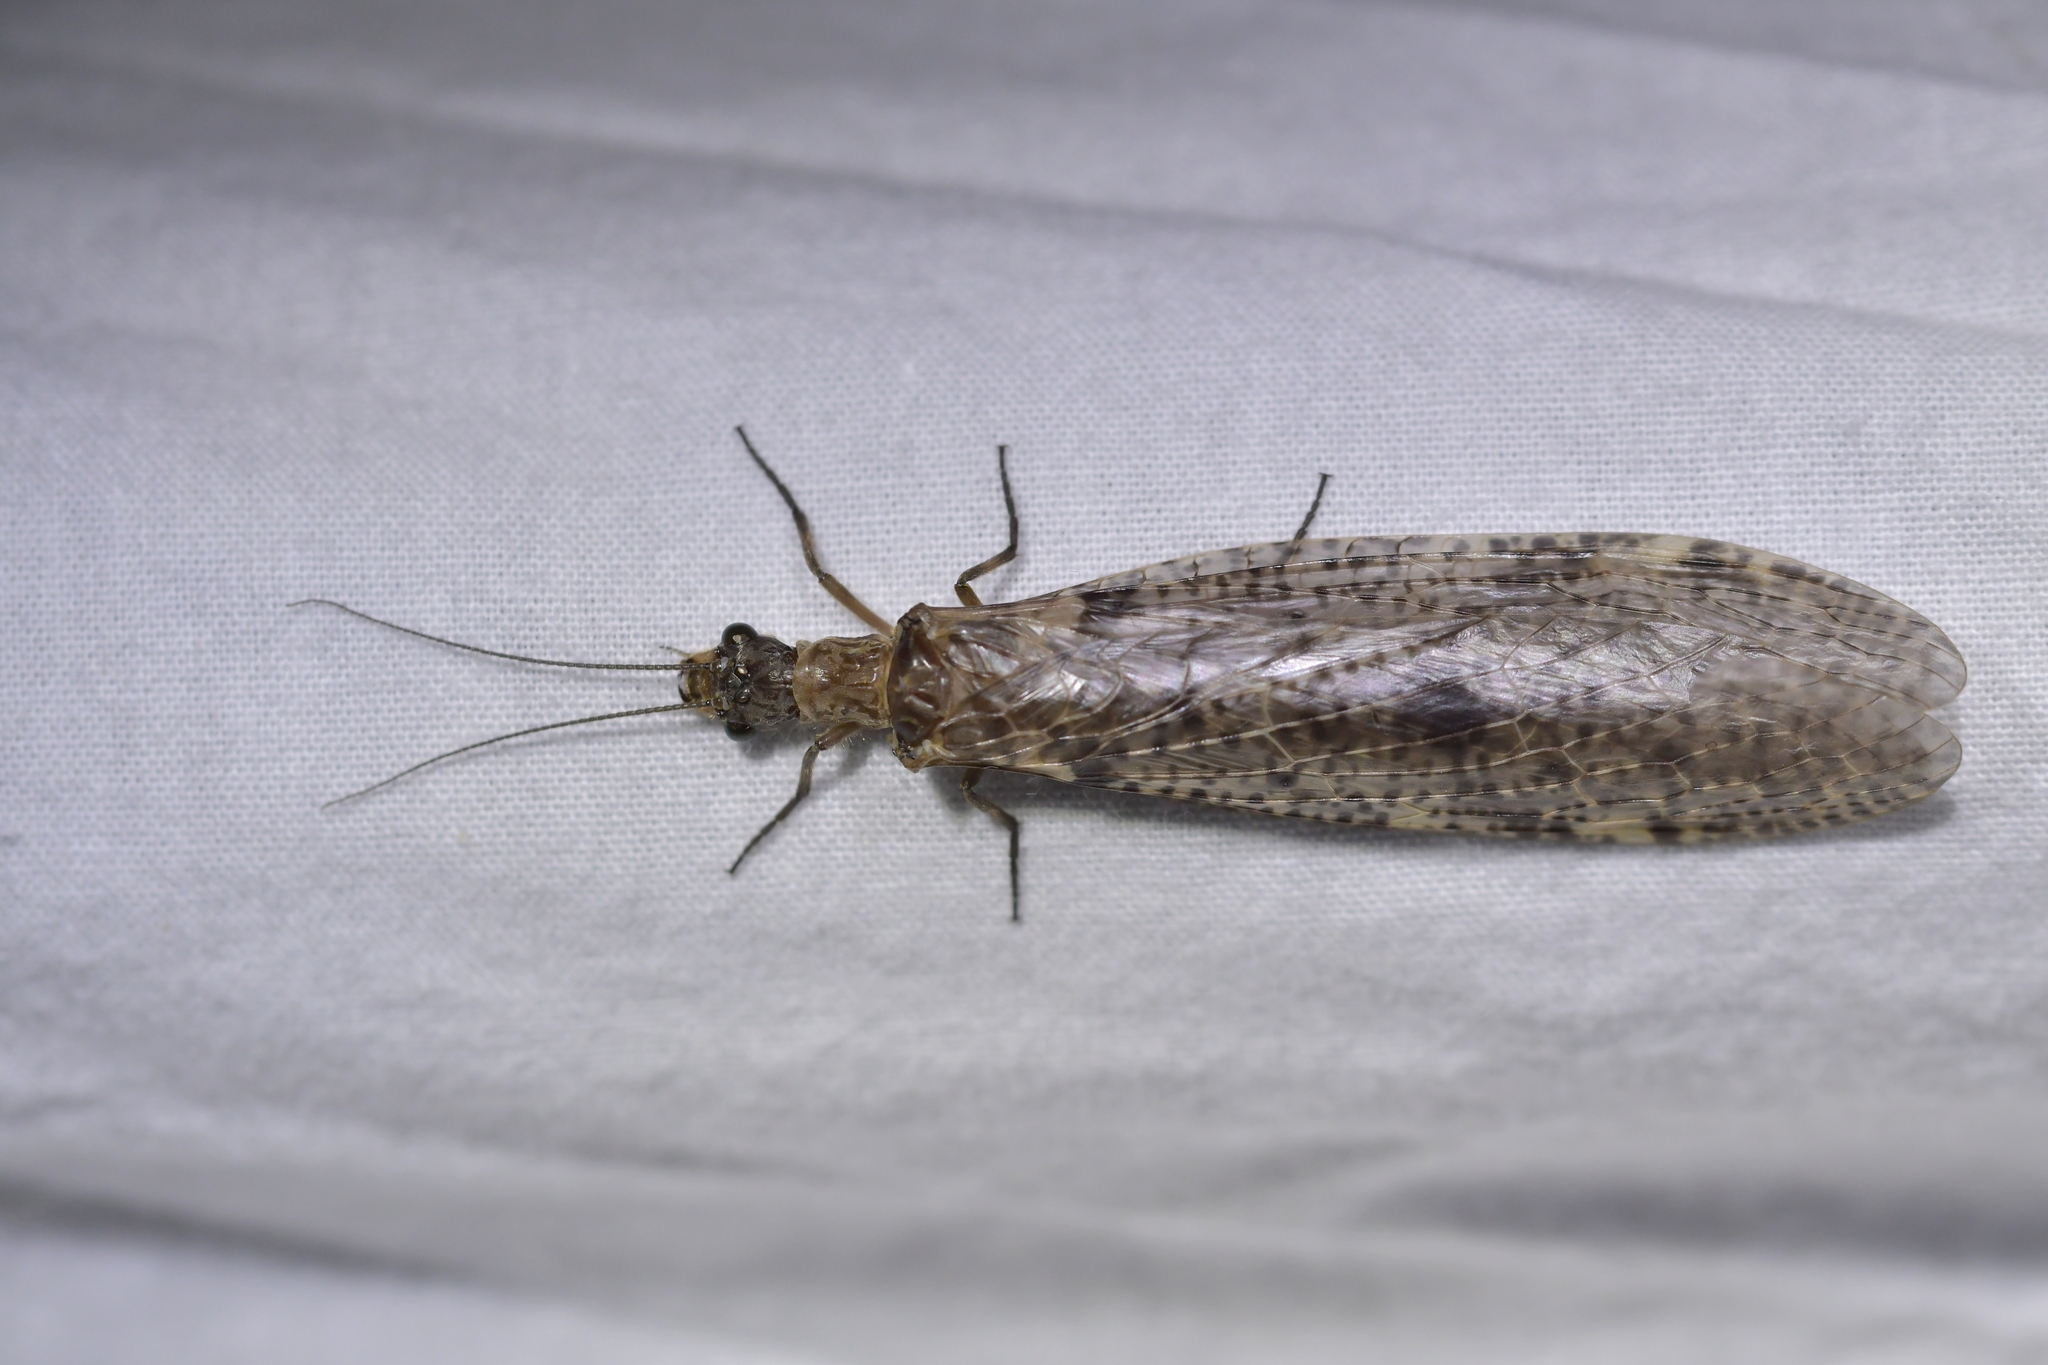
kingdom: Animalia
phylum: Arthropoda
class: Insecta
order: Megaloptera
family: Corydalidae
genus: Archichauliodes
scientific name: Archichauliodes diversus
